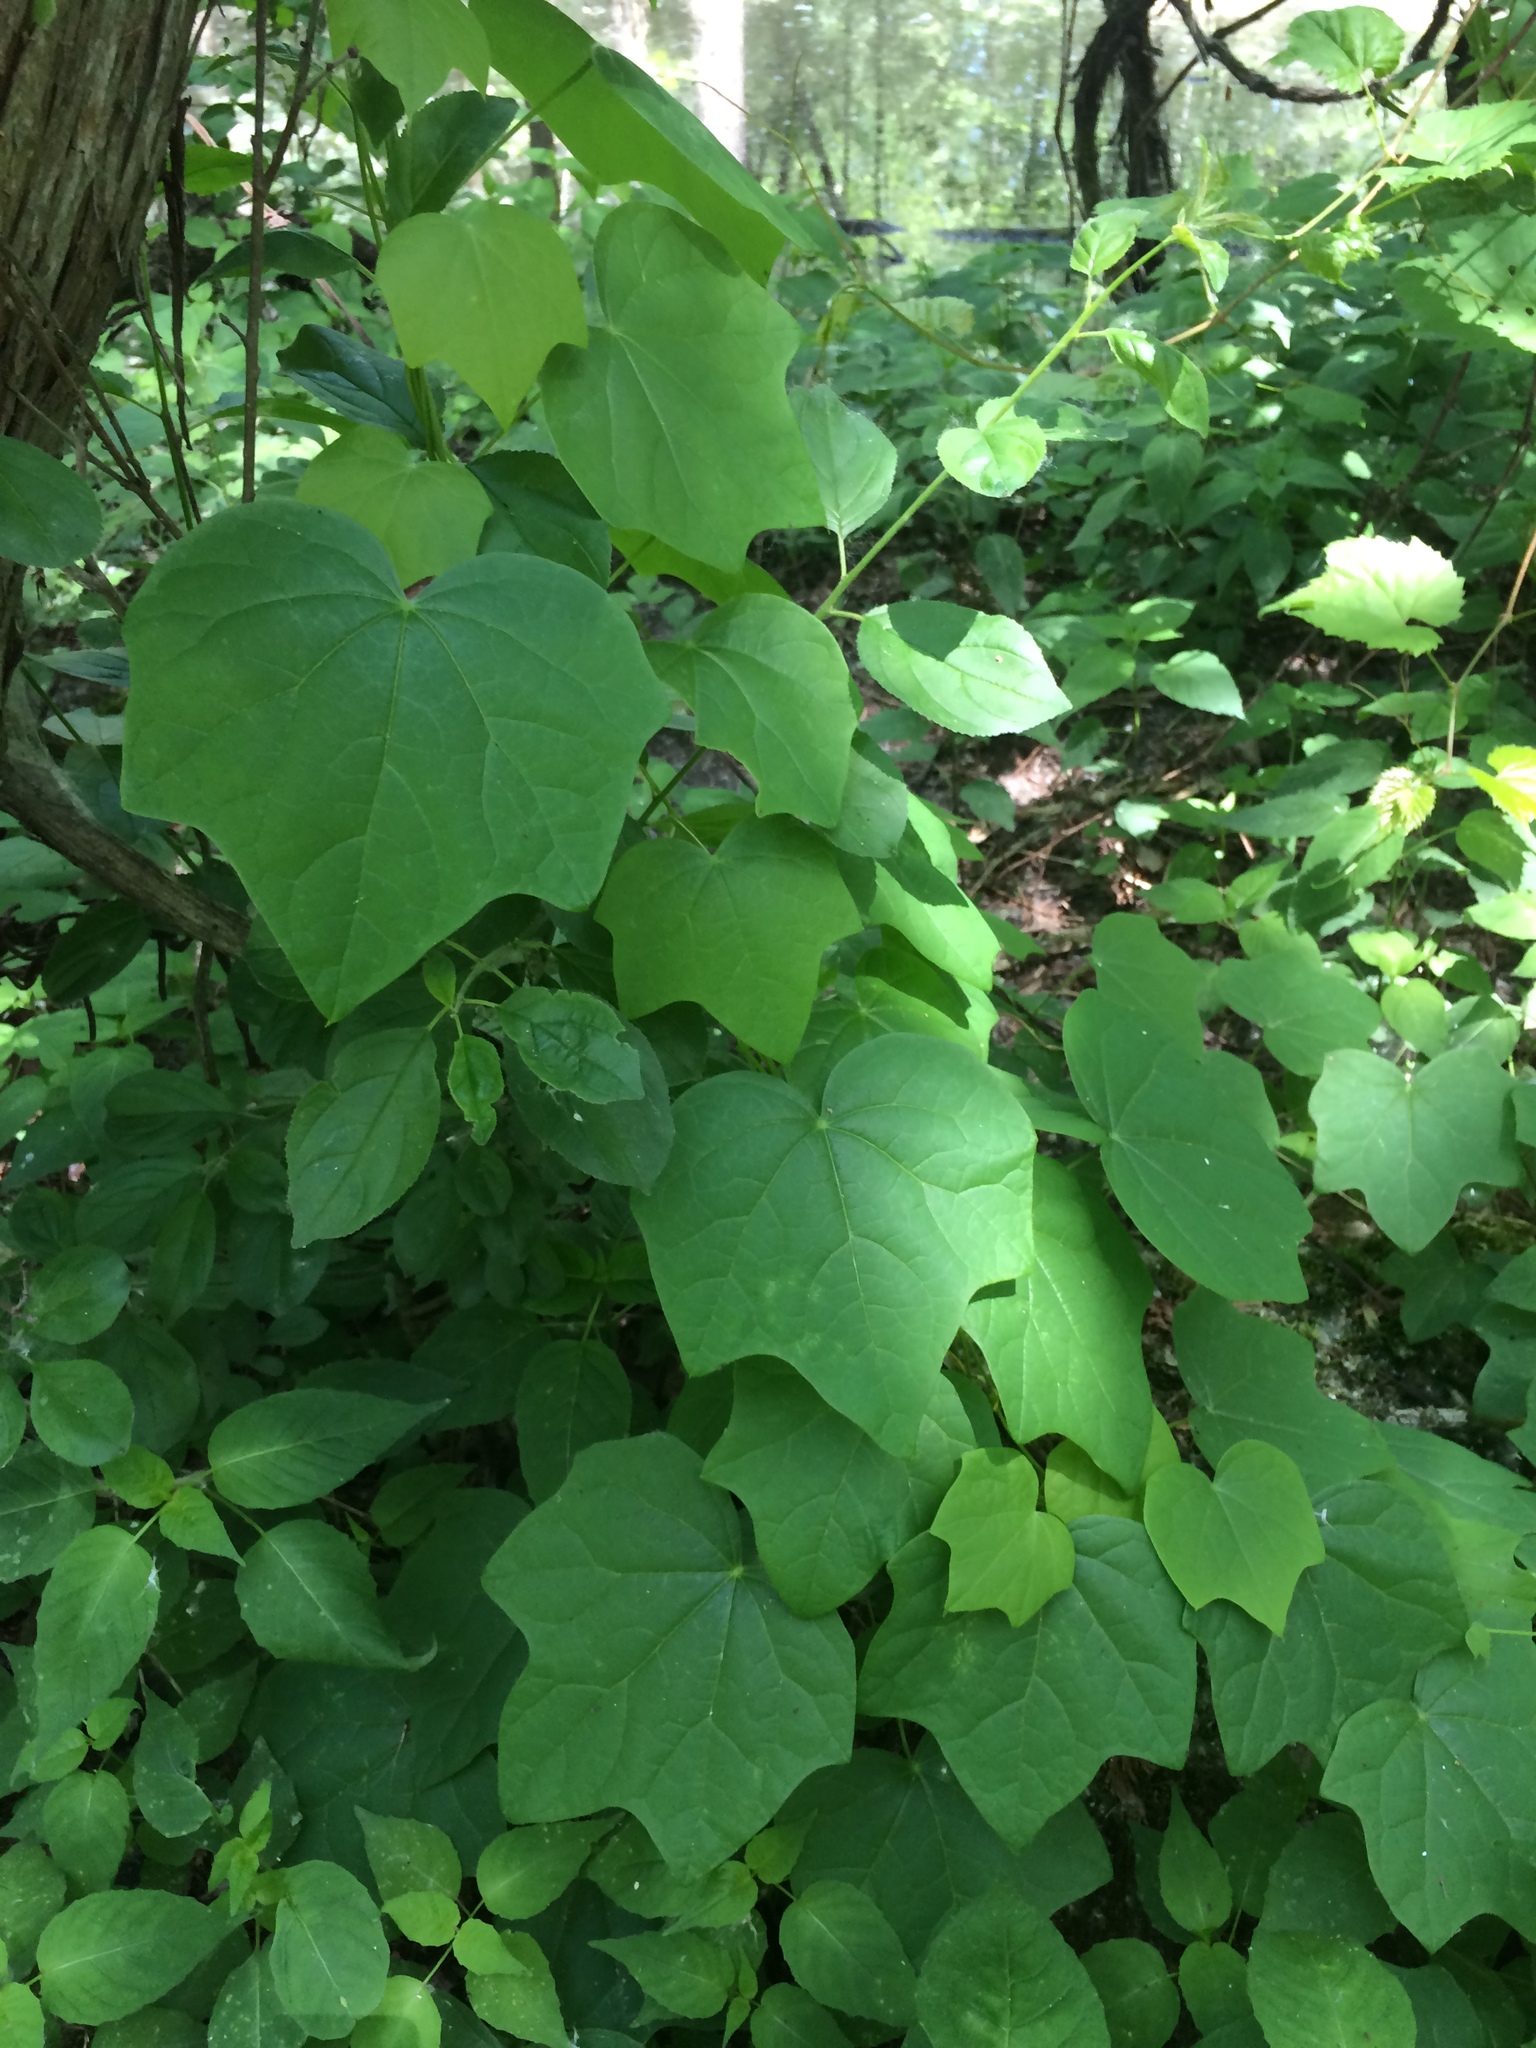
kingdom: Plantae
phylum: Tracheophyta
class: Magnoliopsida
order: Ranunculales
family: Menispermaceae
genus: Menispermum
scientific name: Menispermum canadense
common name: Moonseed
